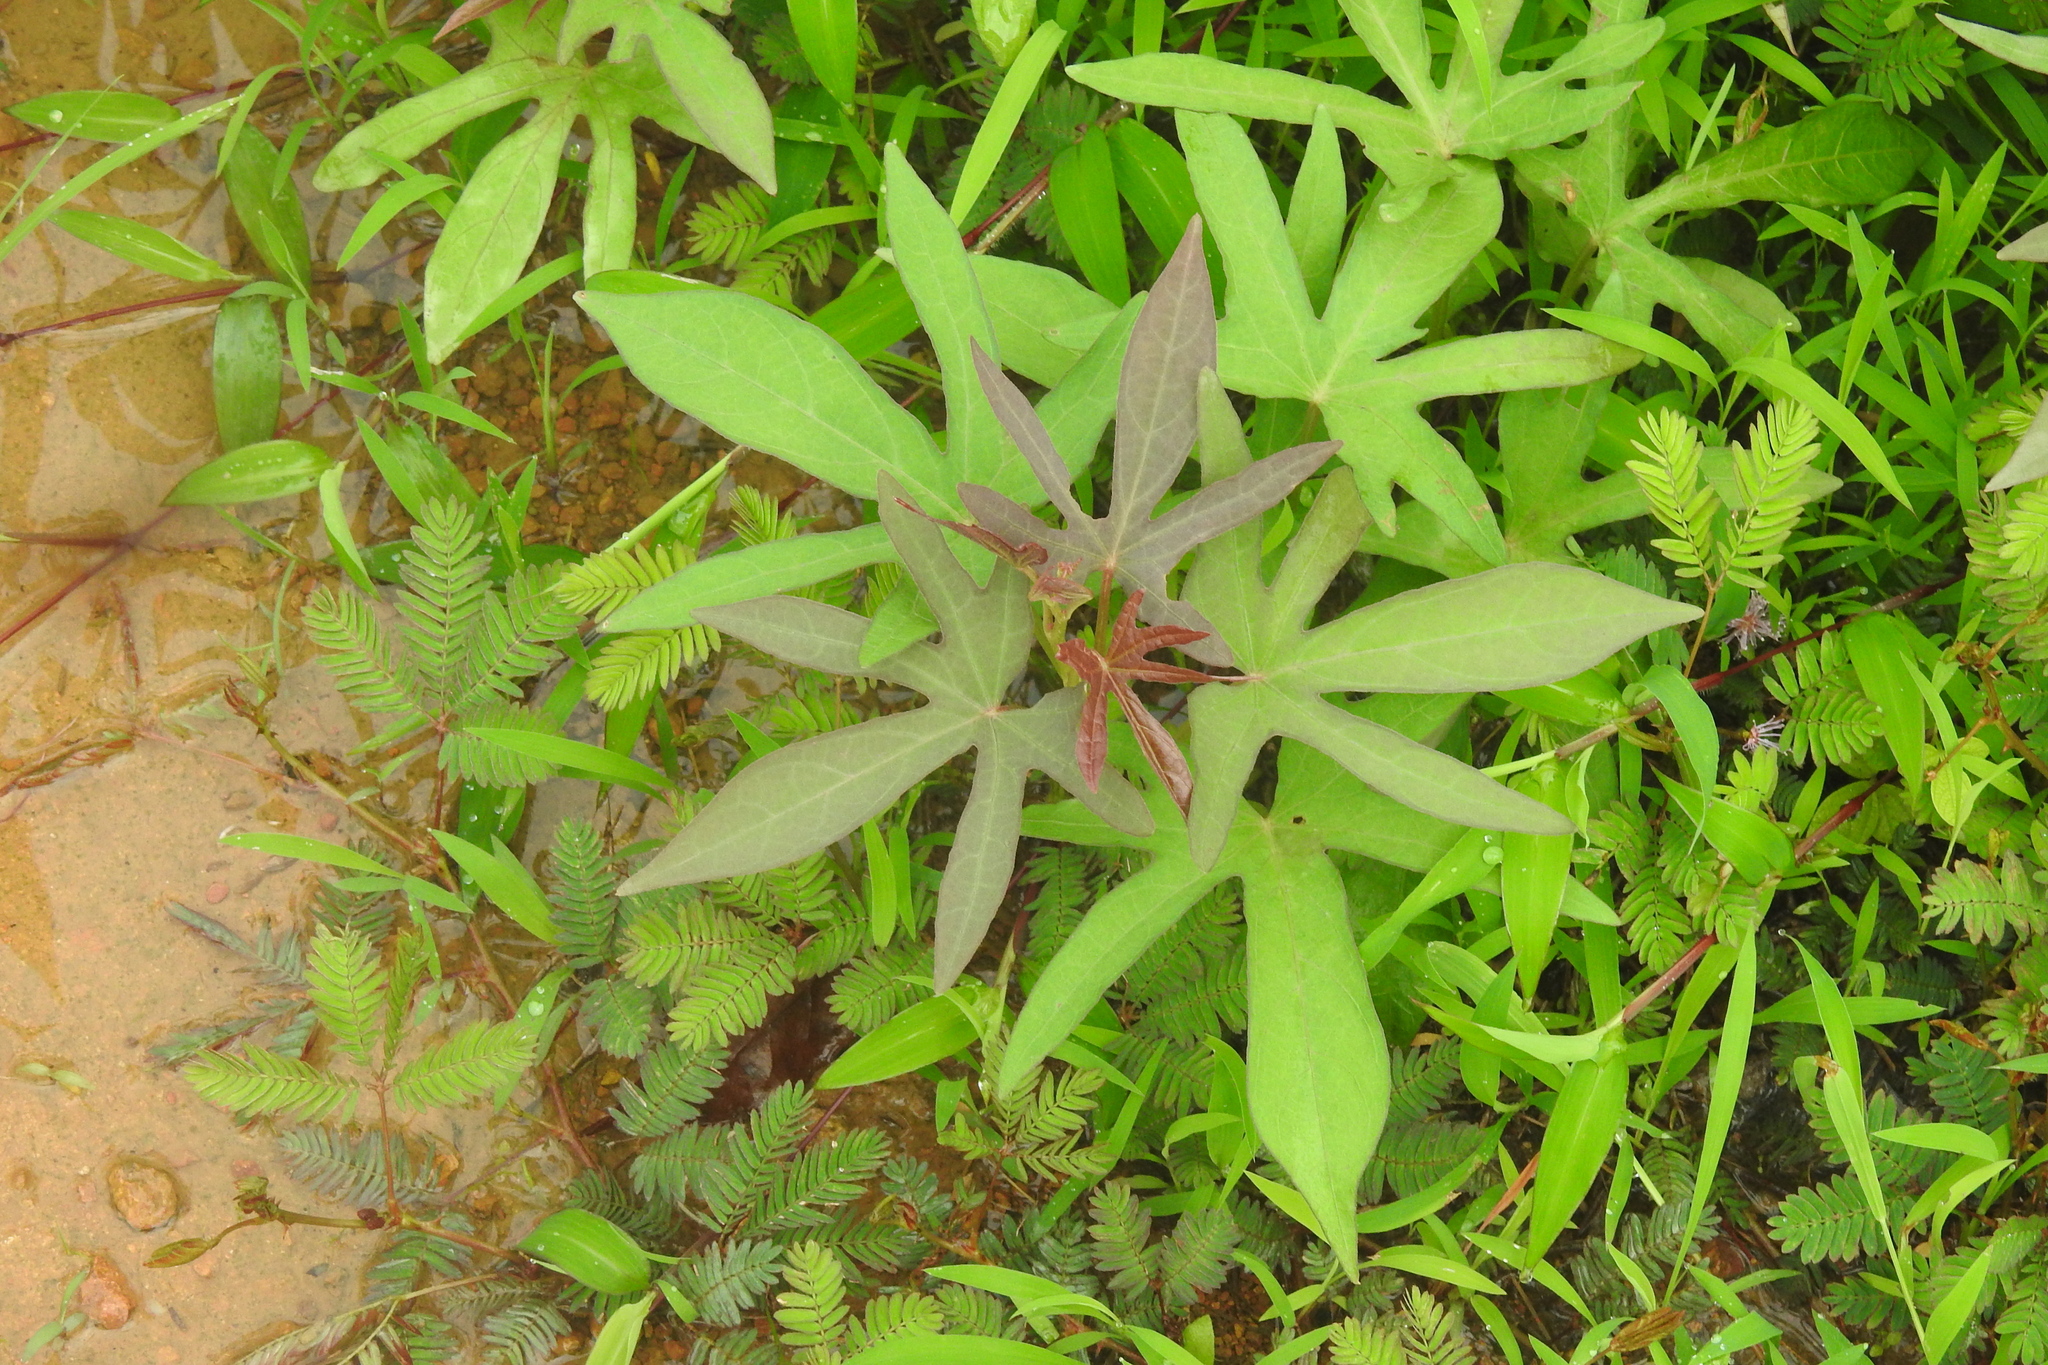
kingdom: Plantae
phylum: Tracheophyta
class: Magnoliopsida
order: Solanales
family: Convolvulaceae
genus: Ipomoea
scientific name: Ipomoea batatas
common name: Sweet-potato
